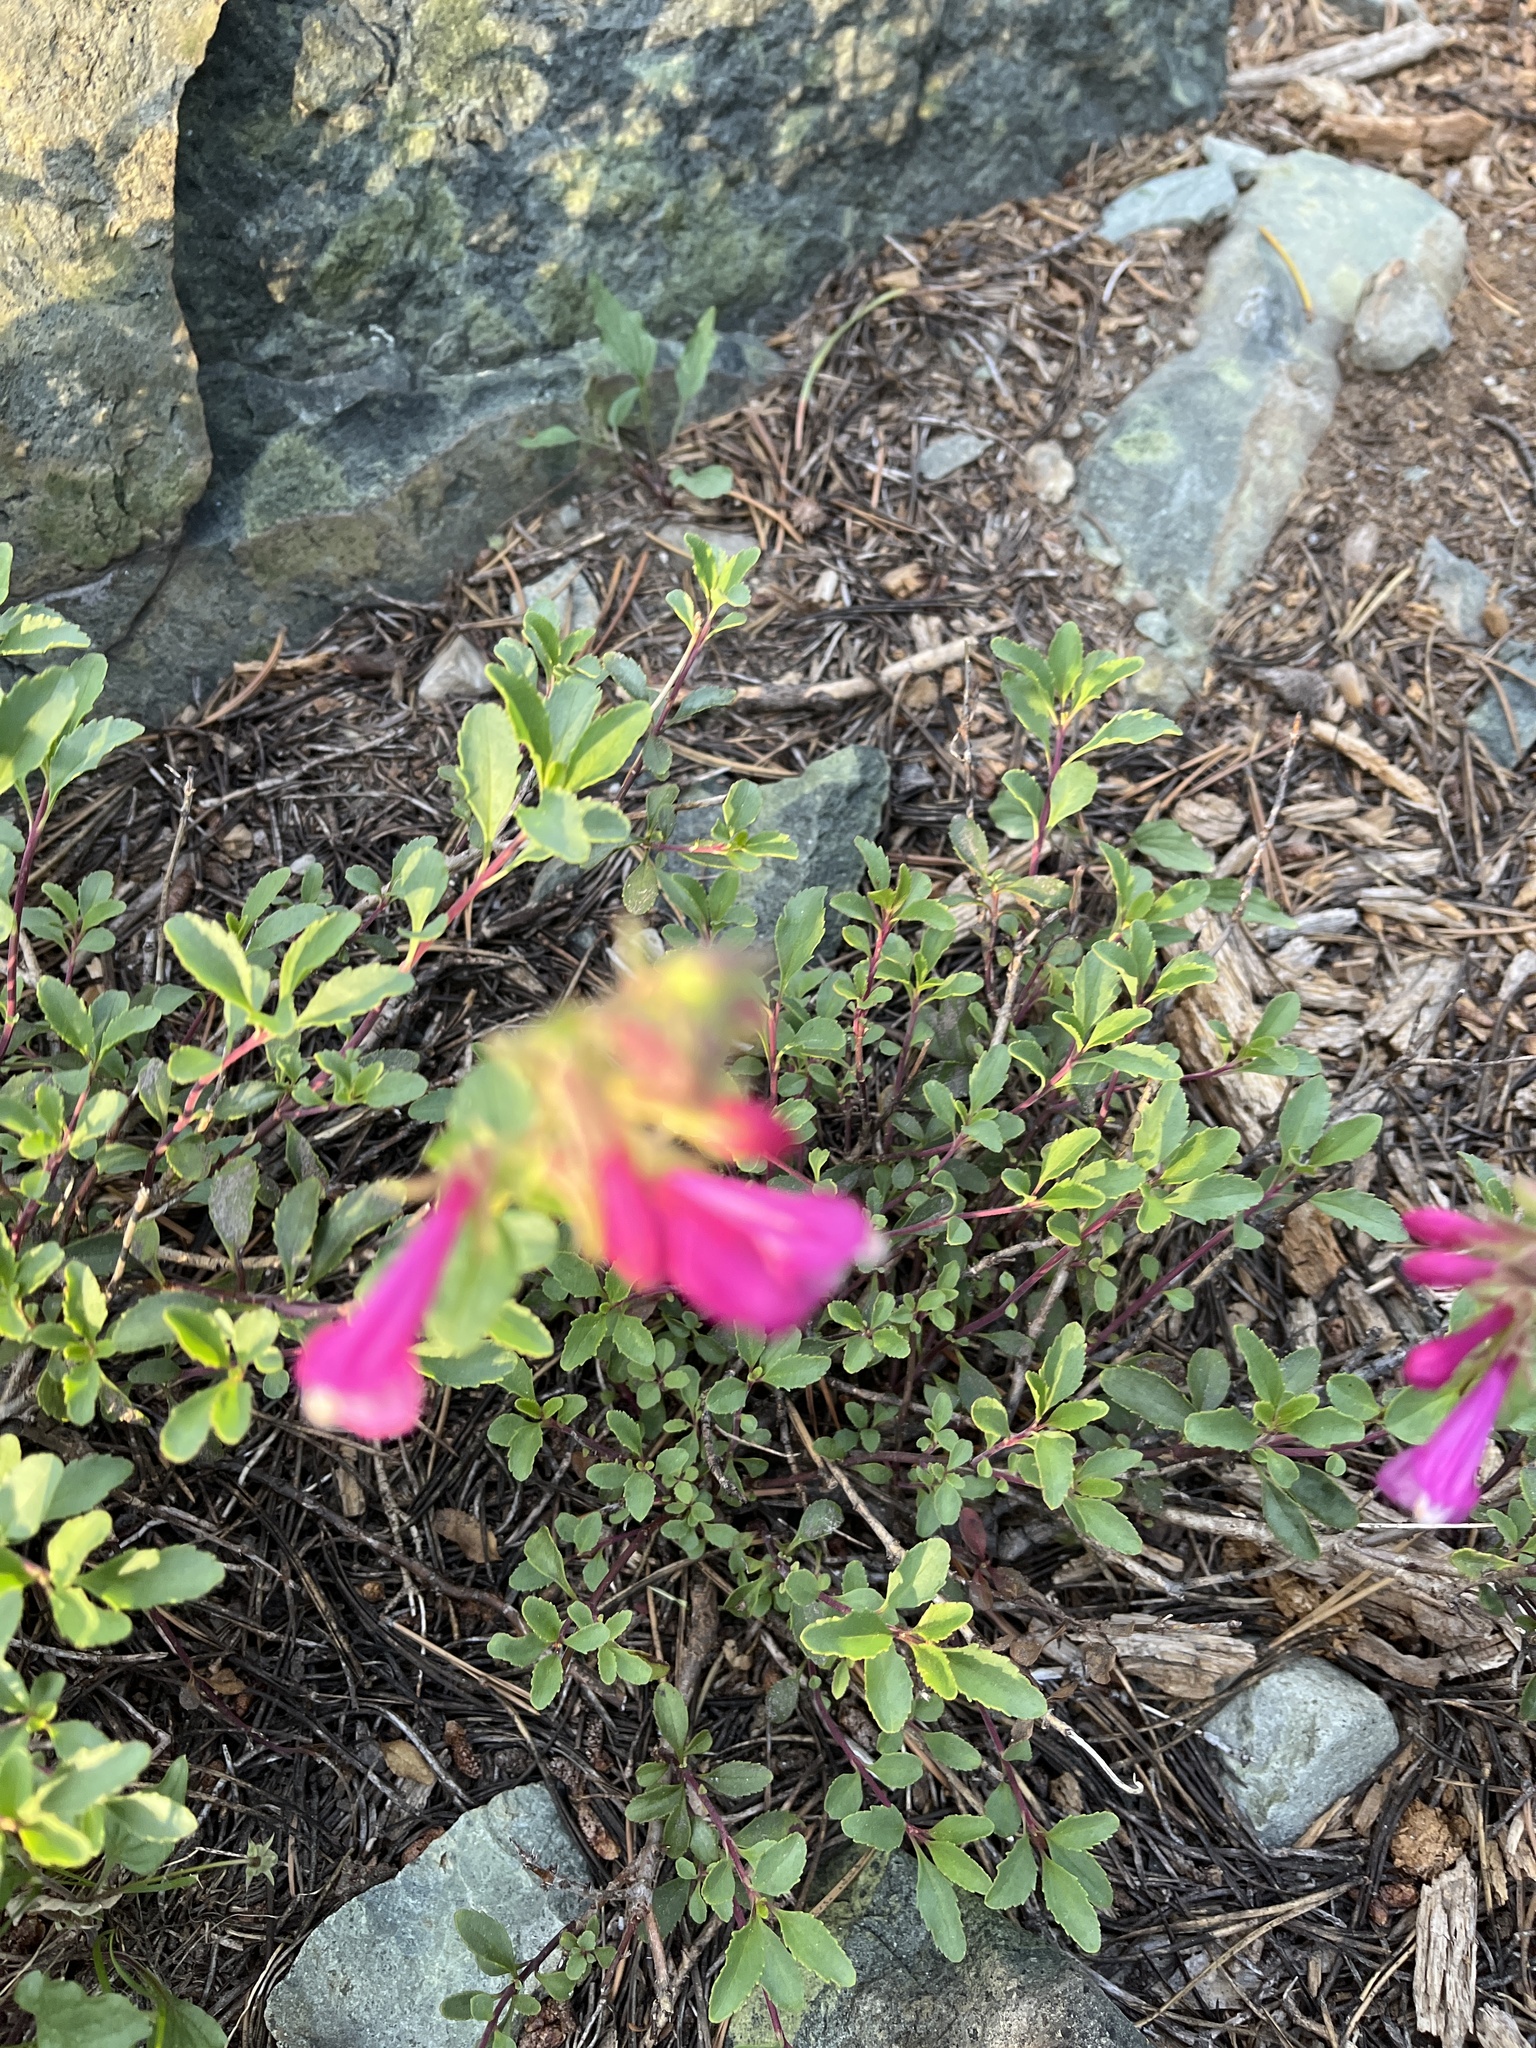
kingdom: Plantae
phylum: Tracheophyta
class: Magnoliopsida
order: Lamiales
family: Plantaginaceae
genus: Penstemon
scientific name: Penstemon newberryi
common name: Mountain-pride
